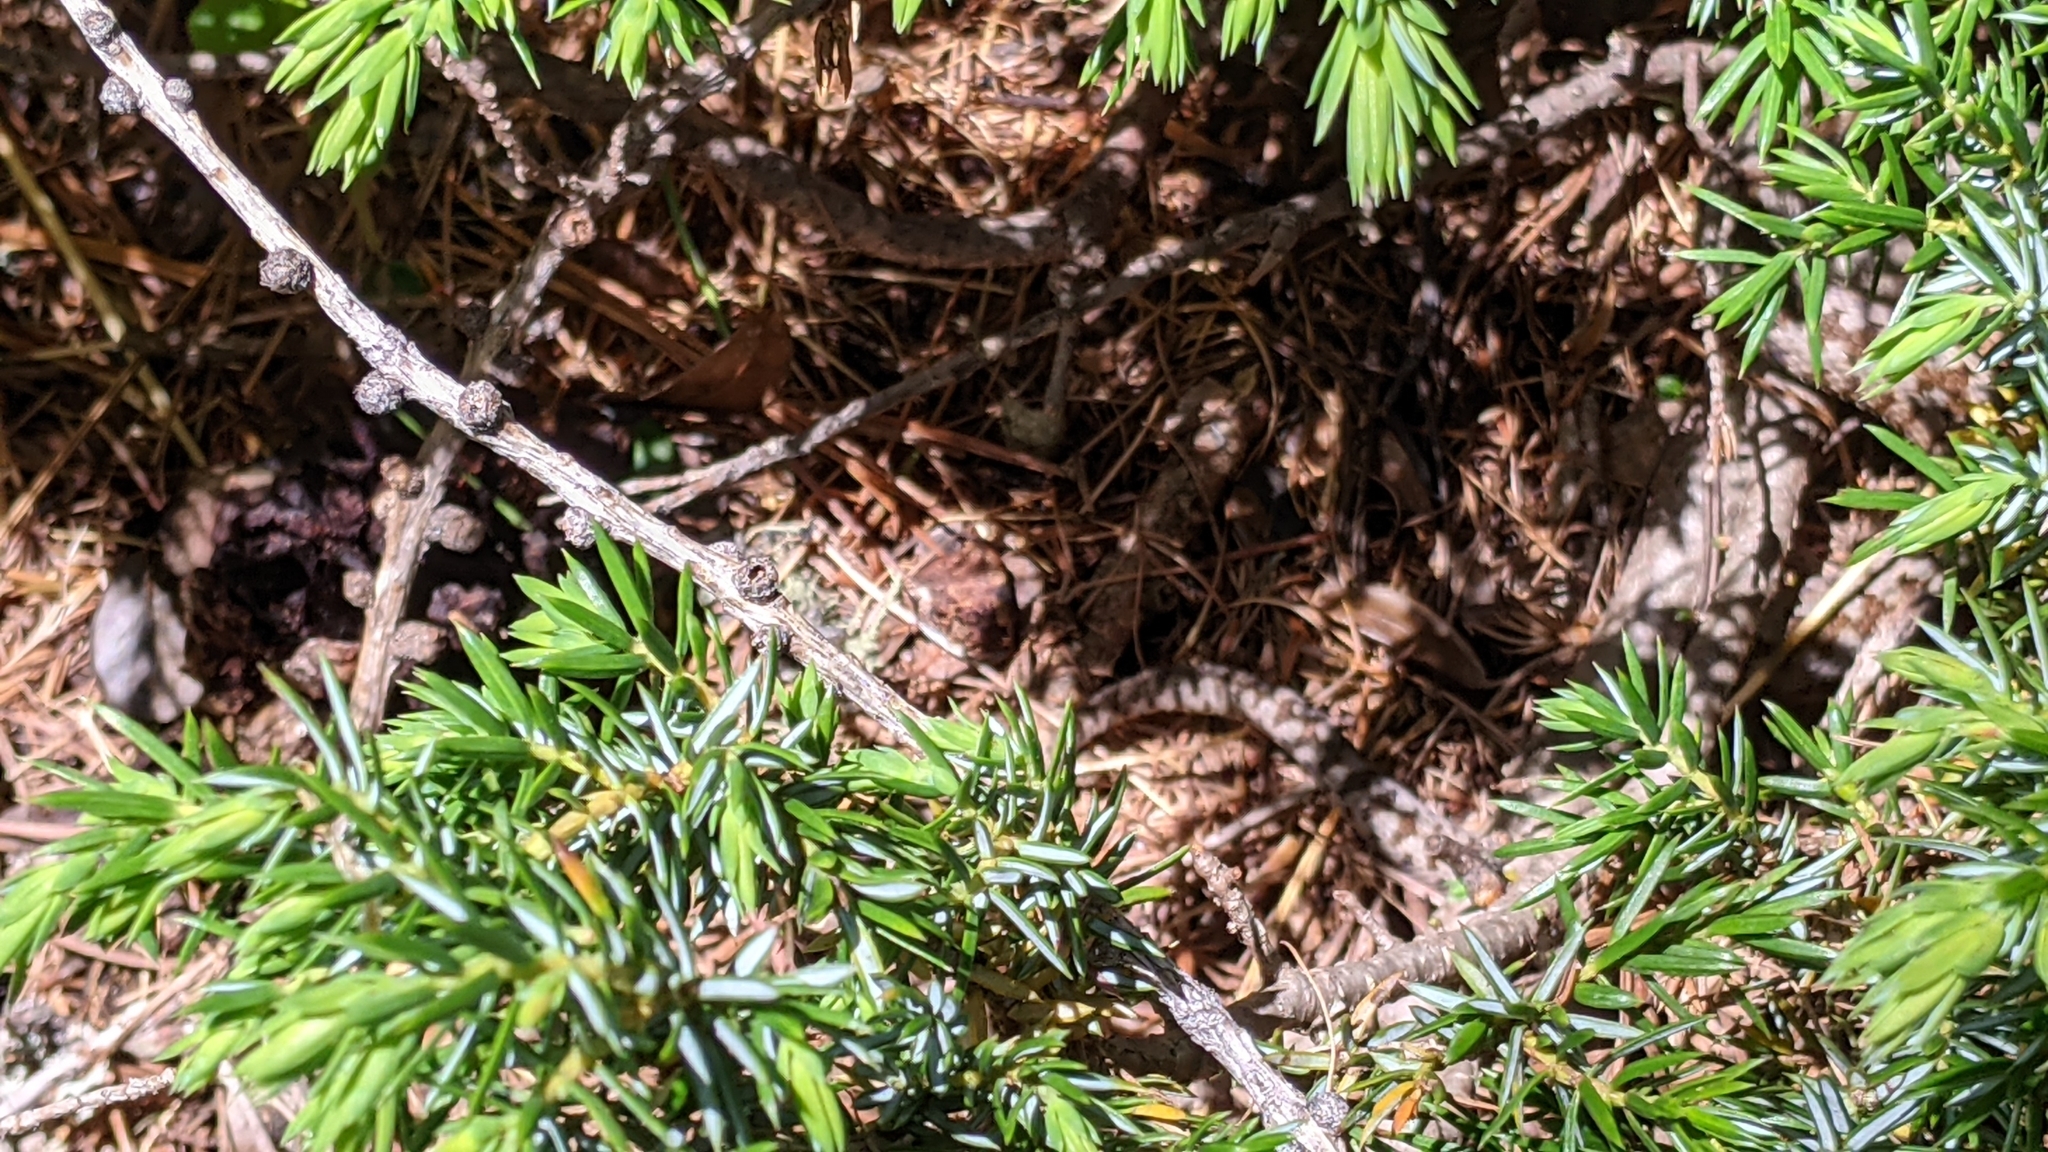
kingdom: Animalia
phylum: Chordata
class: Squamata
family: Viperidae
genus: Vipera
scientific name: Vipera berus
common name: Adder
